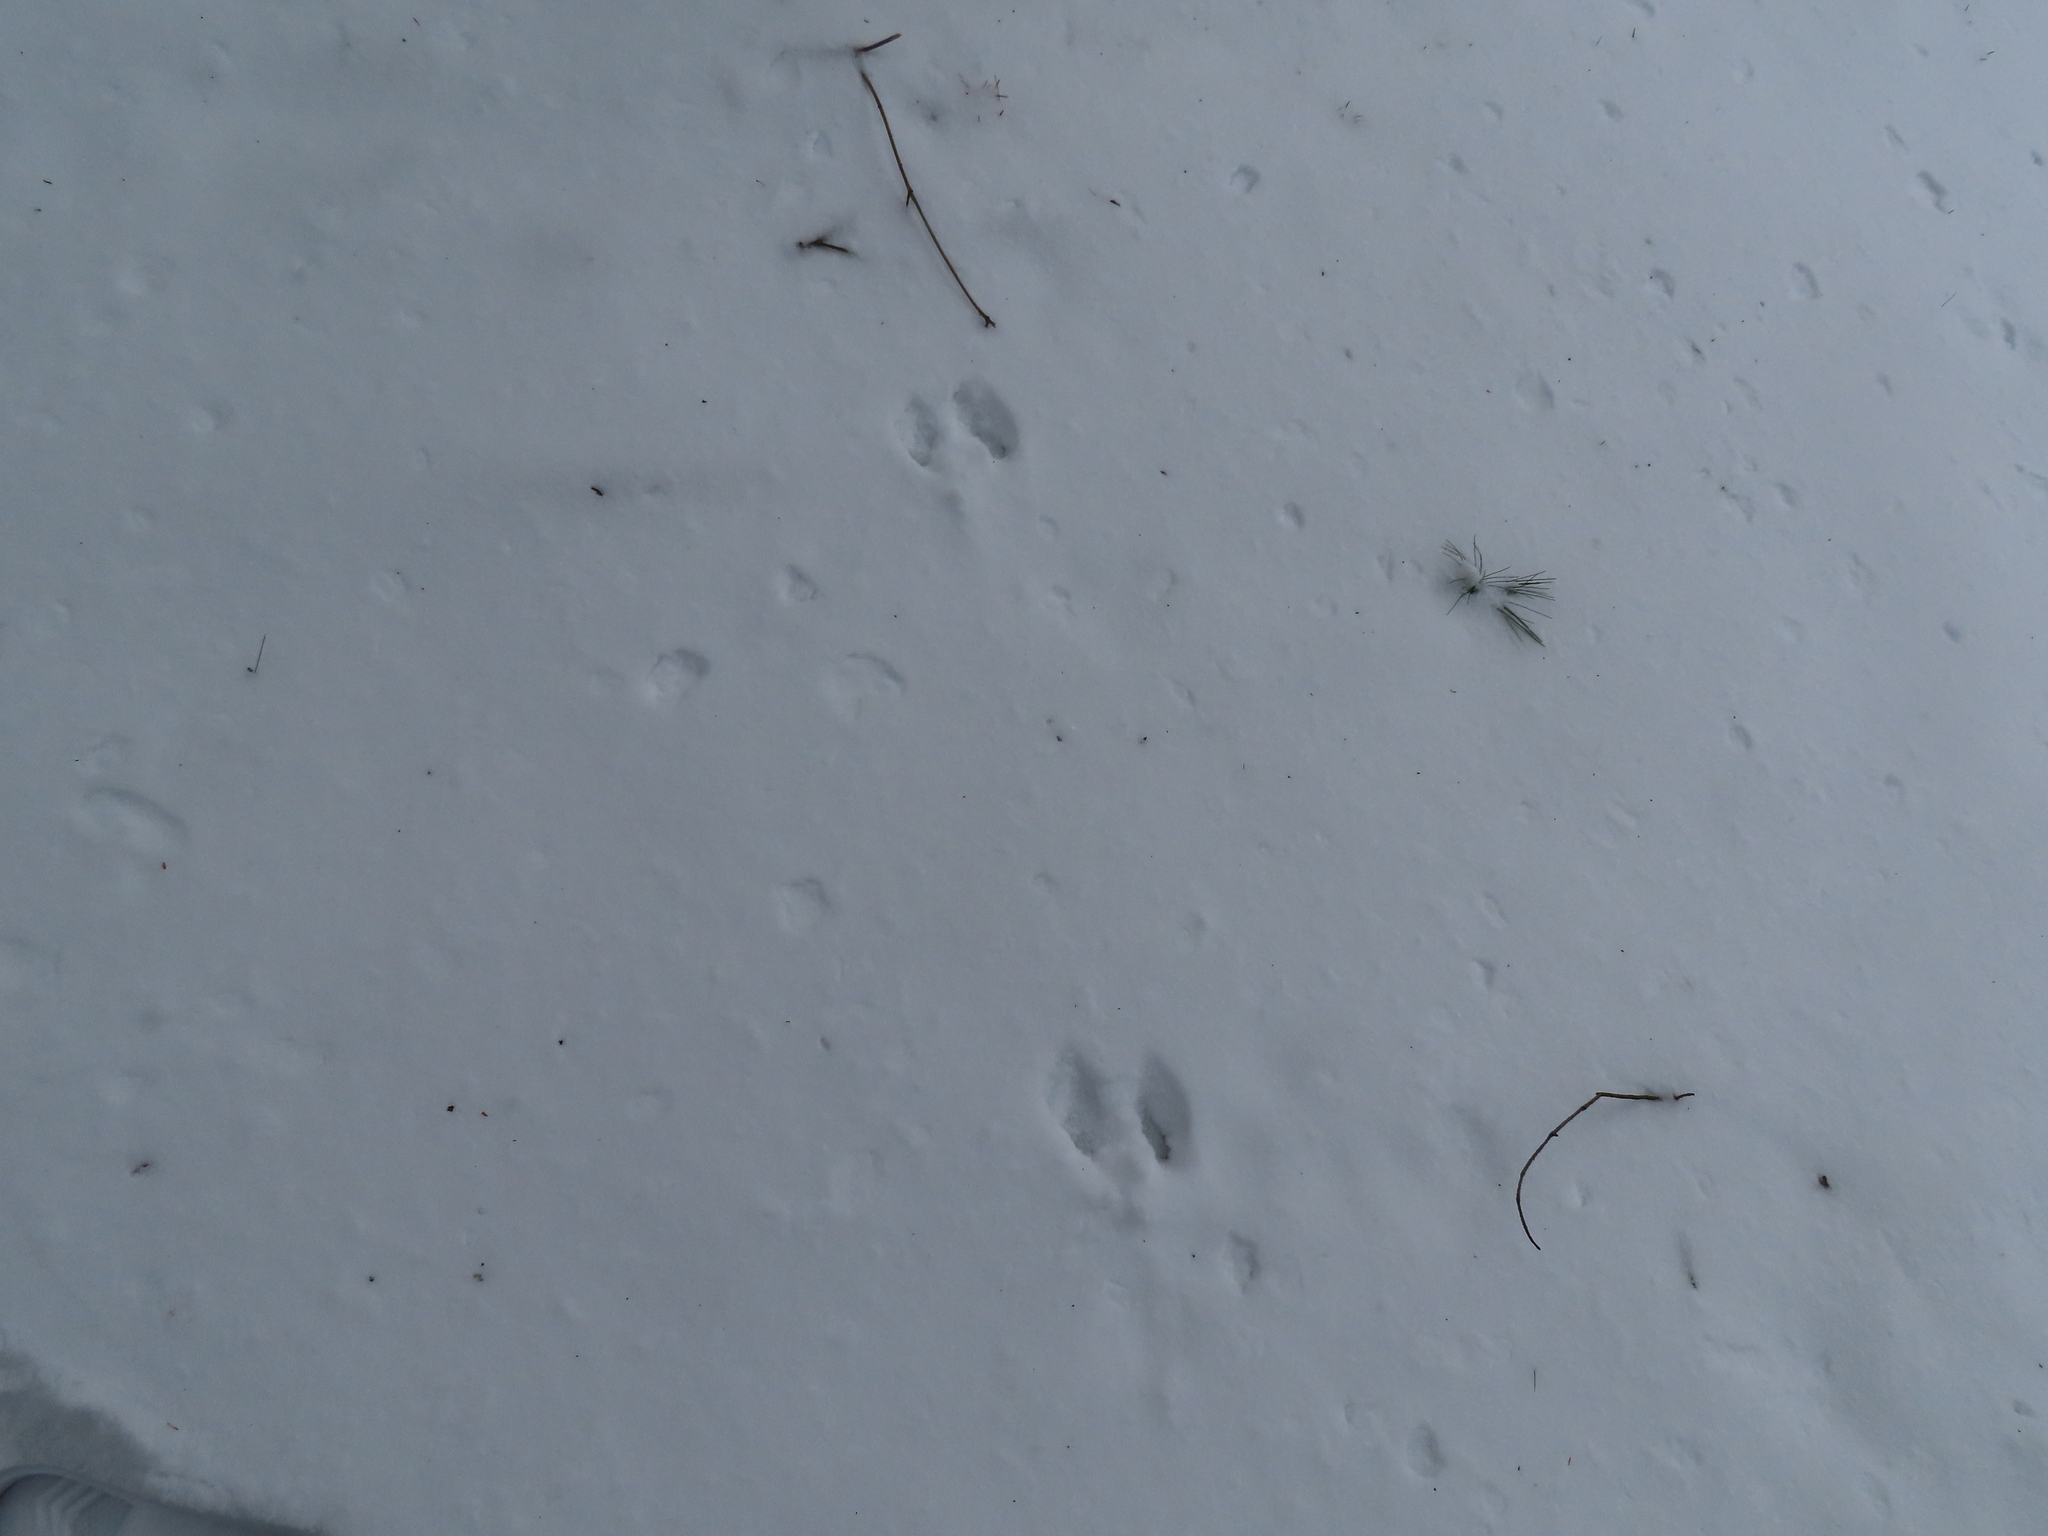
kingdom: Animalia
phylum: Chordata
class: Mammalia
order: Rodentia
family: Sciuridae
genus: Sciurus
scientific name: Sciurus carolinensis
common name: Eastern gray squirrel
